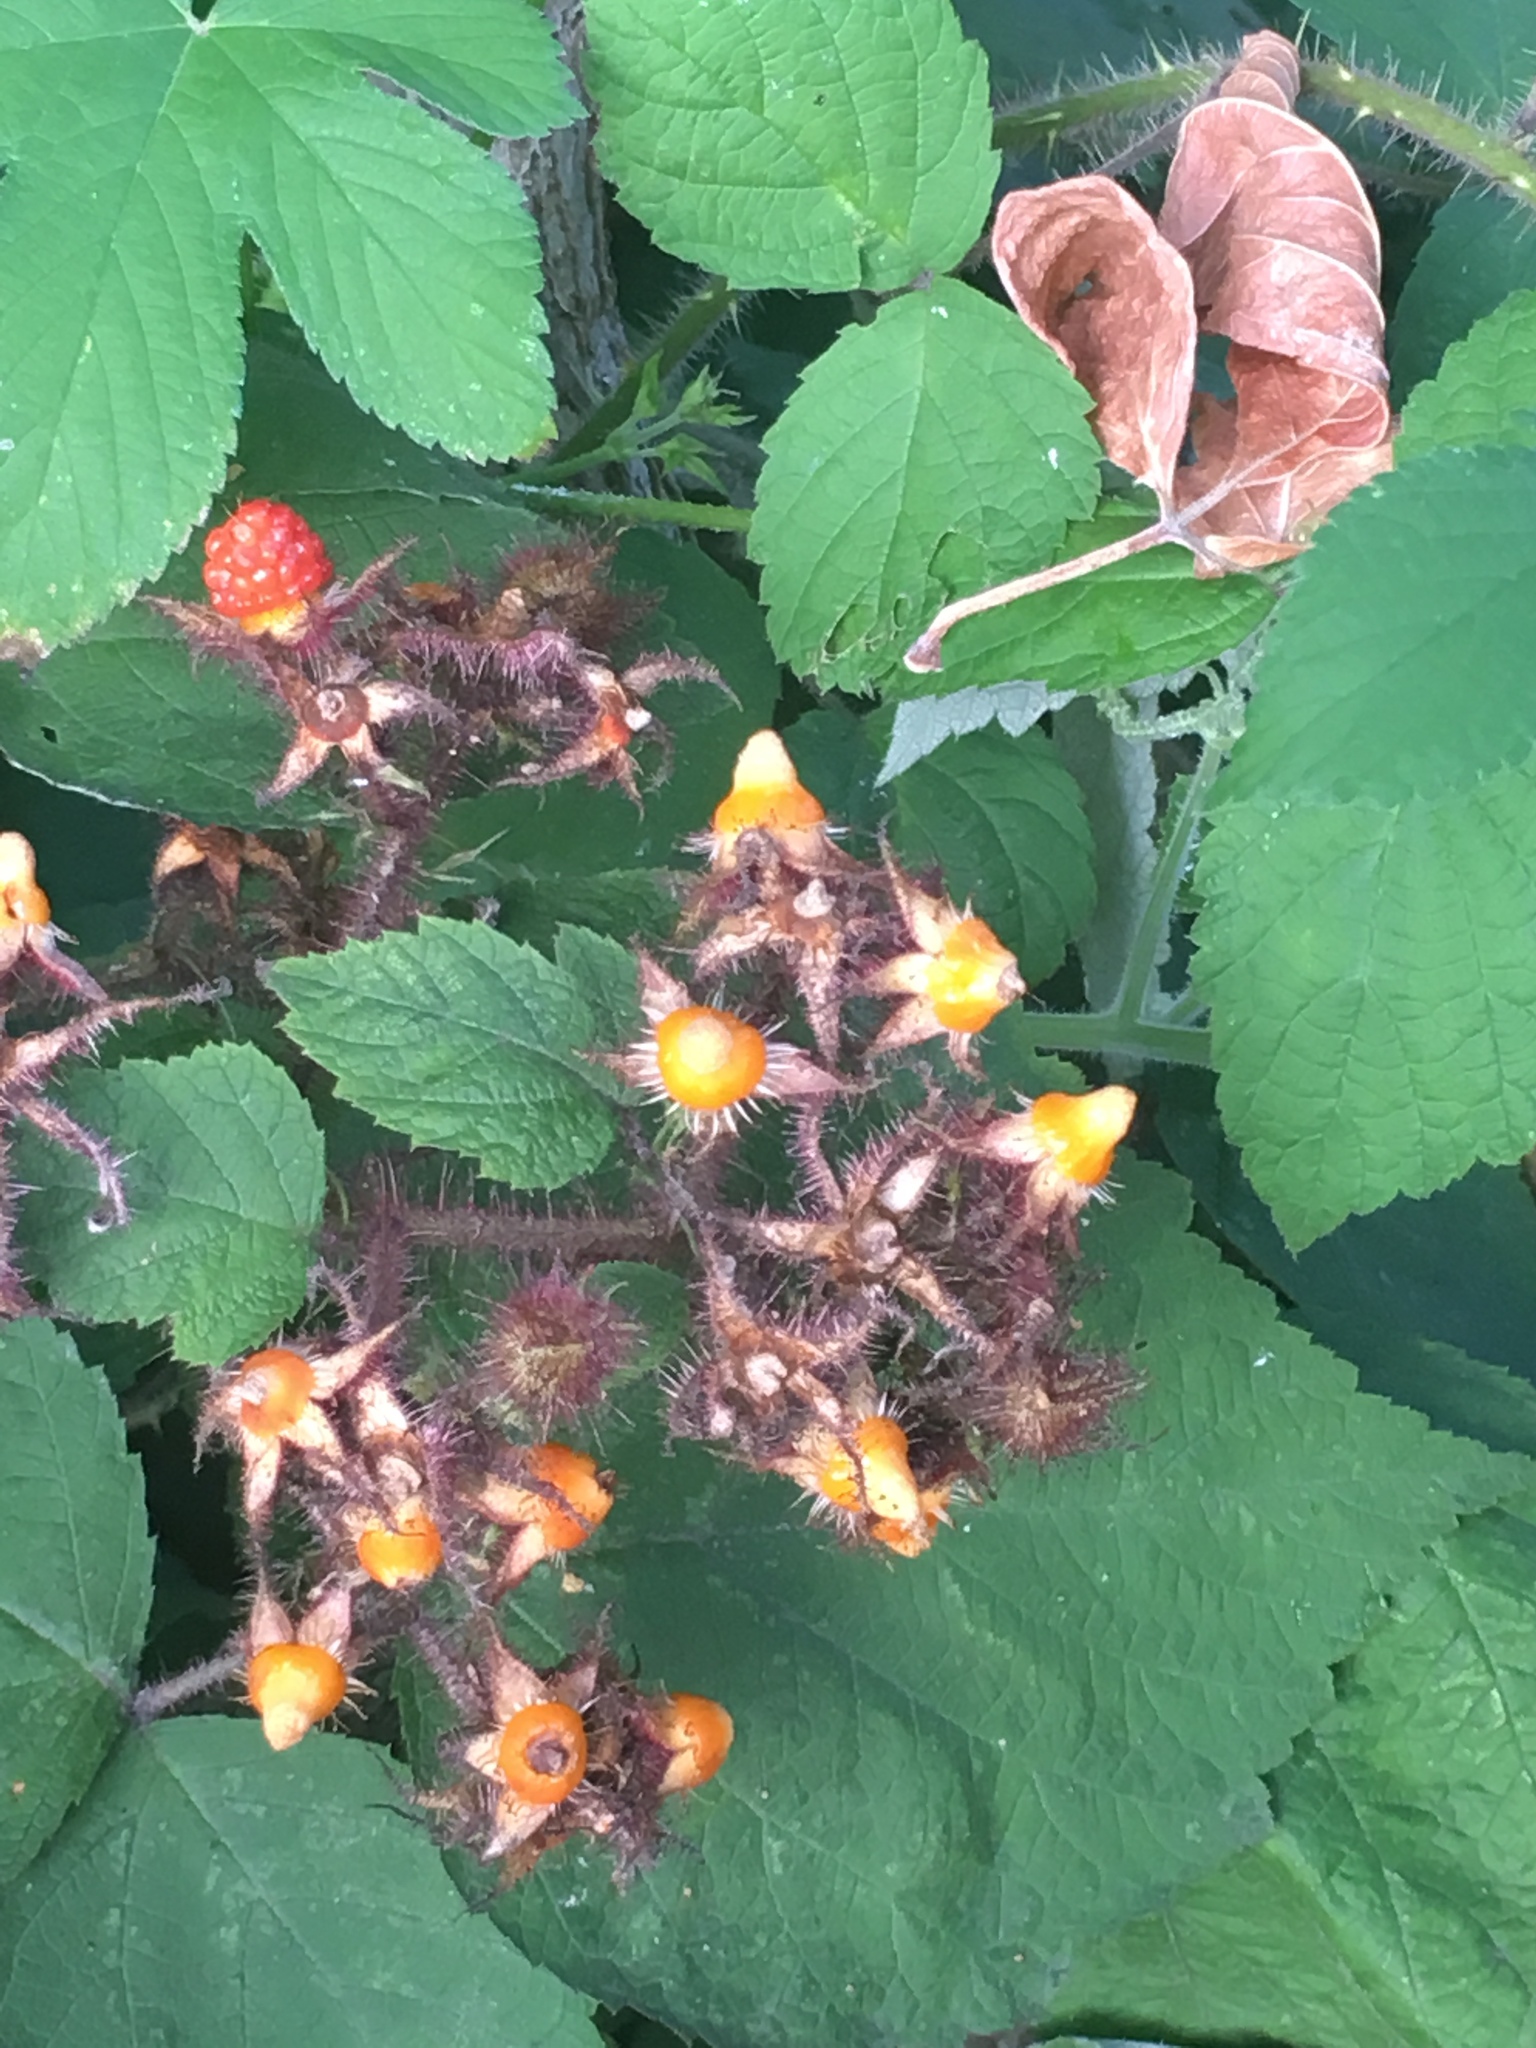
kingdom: Plantae
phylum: Tracheophyta
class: Magnoliopsida
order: Rosales
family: Rosaceae
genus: Rubus
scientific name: Rubus phoenicolasius
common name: Japanese wineberry
